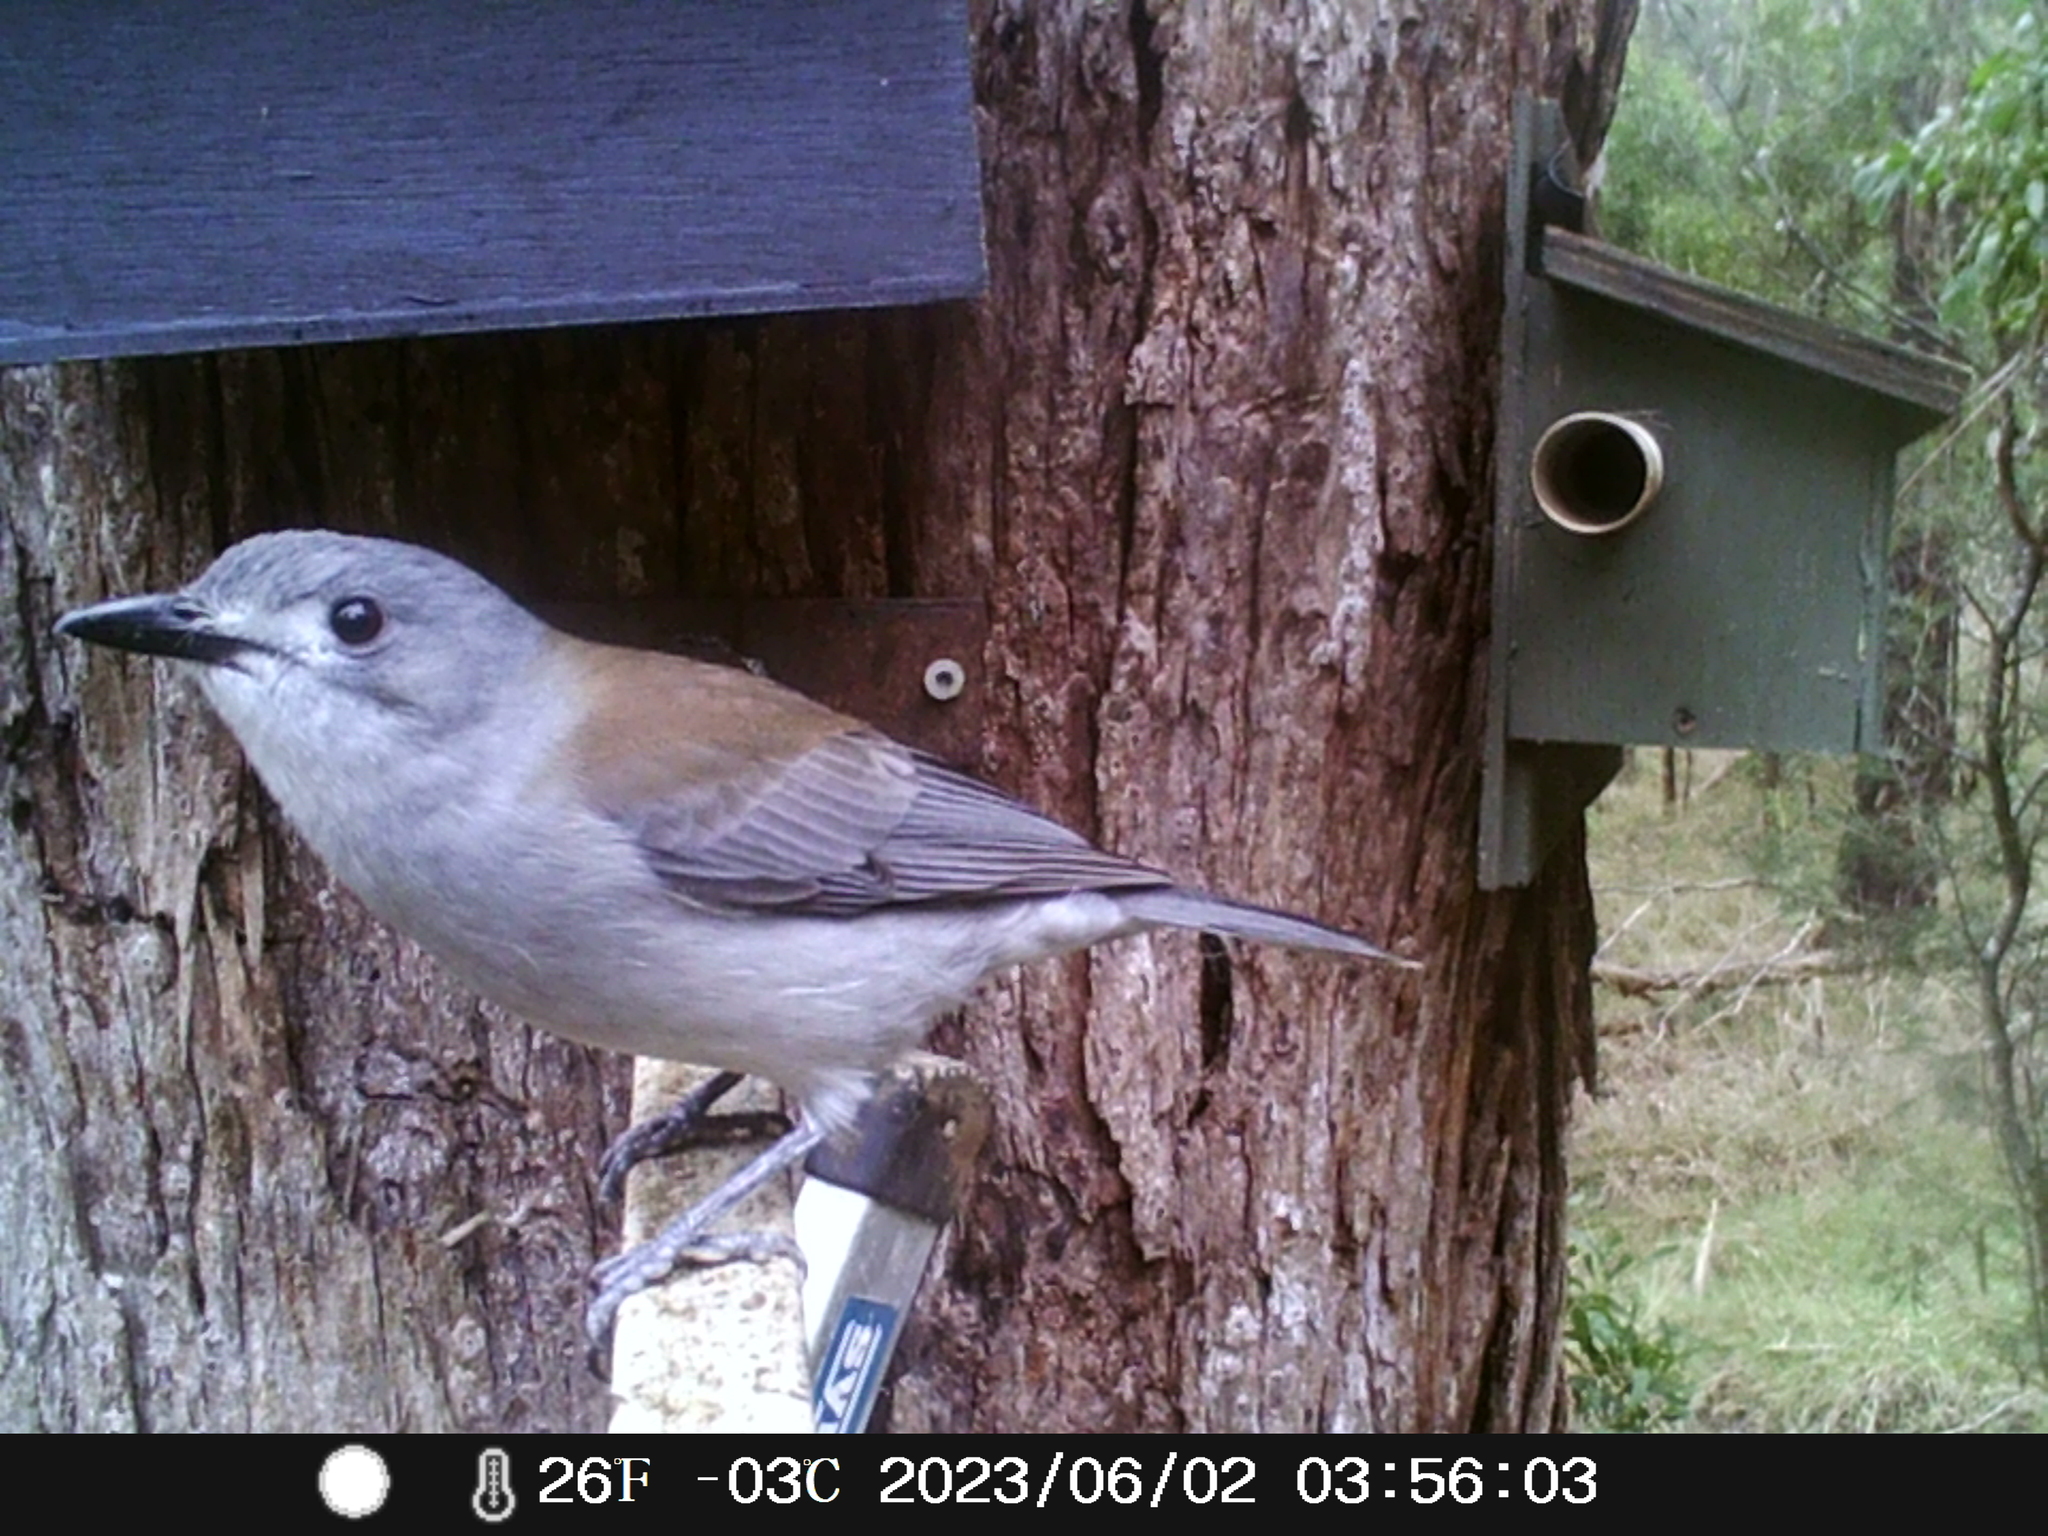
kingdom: Animalia
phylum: Chordata
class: Aves
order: Passeriformes
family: Pachycephalidae
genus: Colluricincla
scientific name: Colluricincla harmonica
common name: Grey shrikethrush
